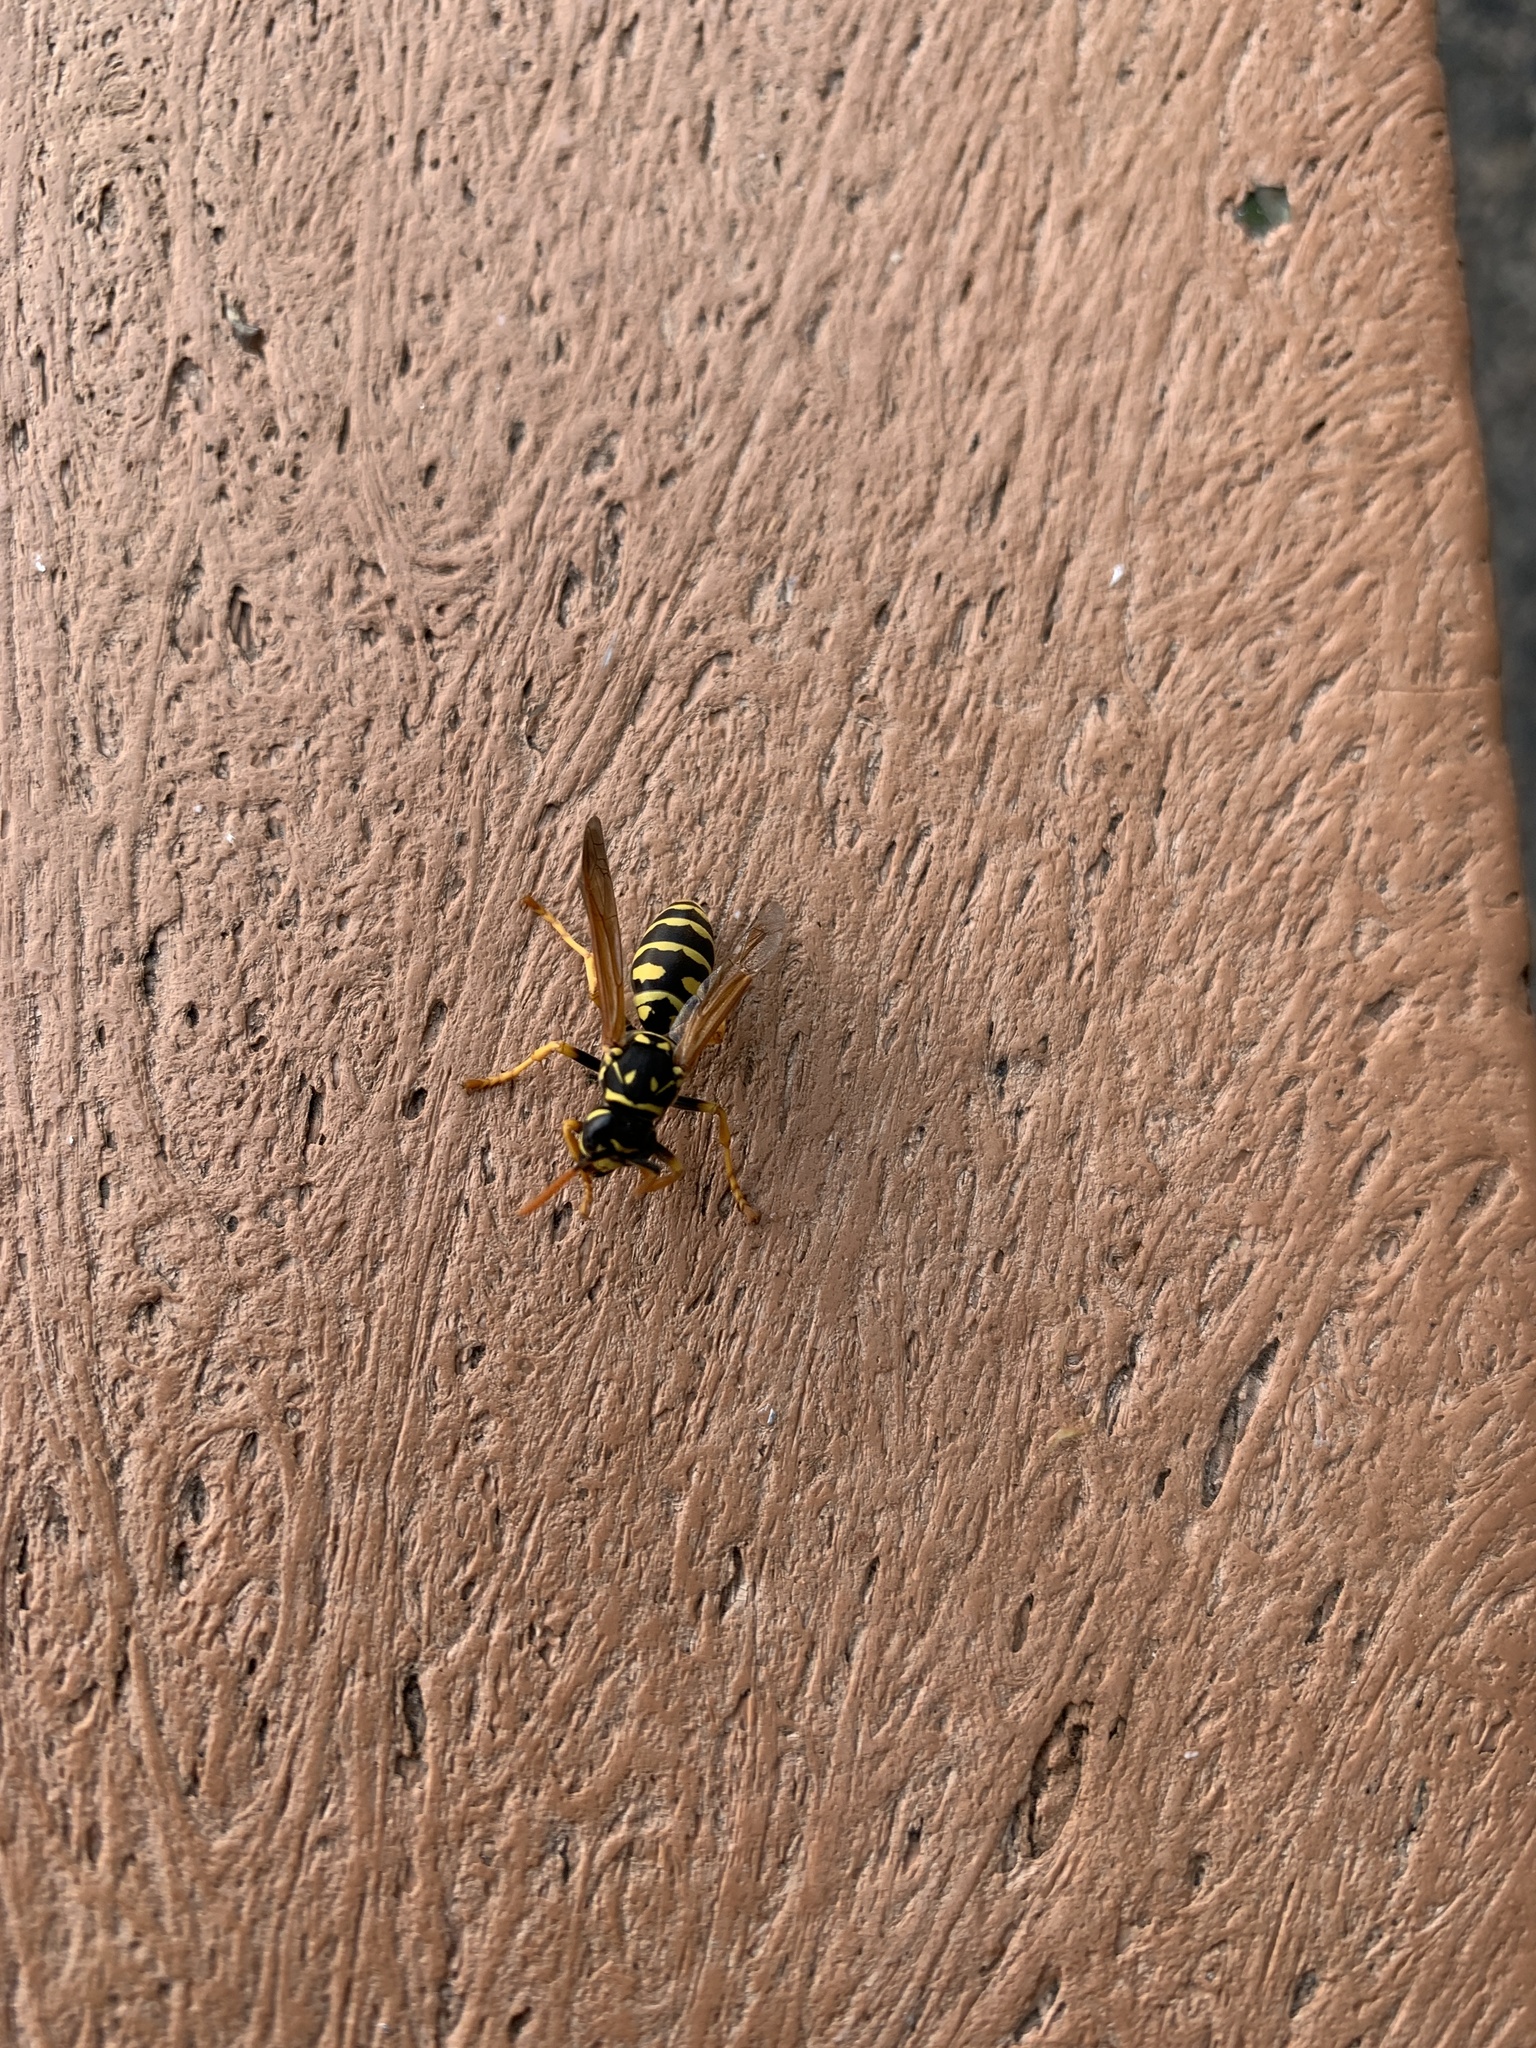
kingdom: Animalia
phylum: Arthropoda
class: Insecta
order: Hymenoptera
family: Eumenidae
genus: Polistes
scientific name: Polistes dominula
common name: Paper wasp
